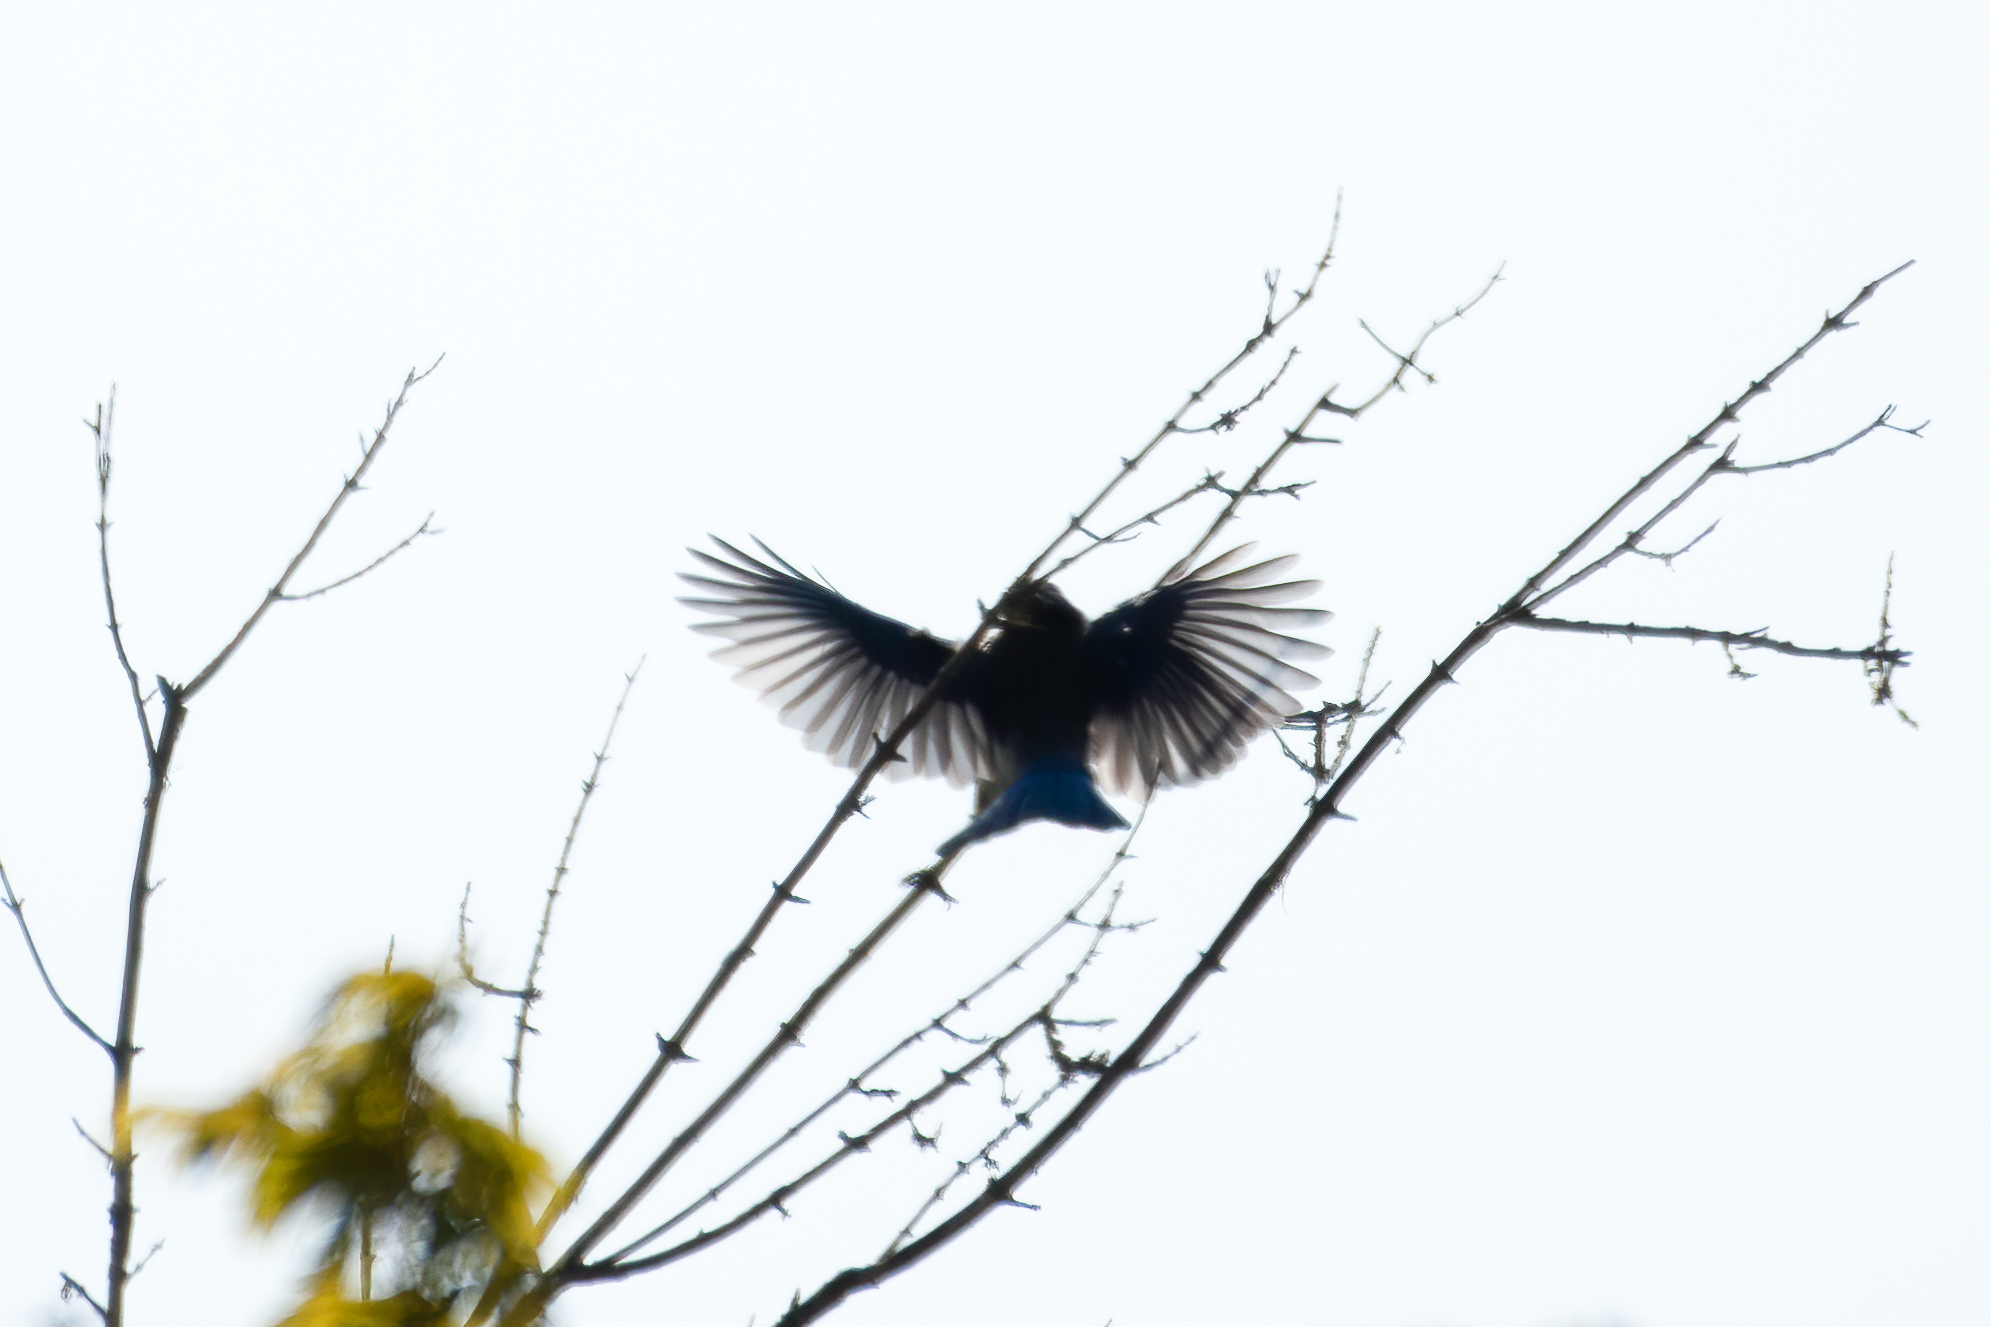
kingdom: Animalia
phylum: Chordata
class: Aves
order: Passeriformes
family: Turdidae
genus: Sialia
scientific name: Sialia
